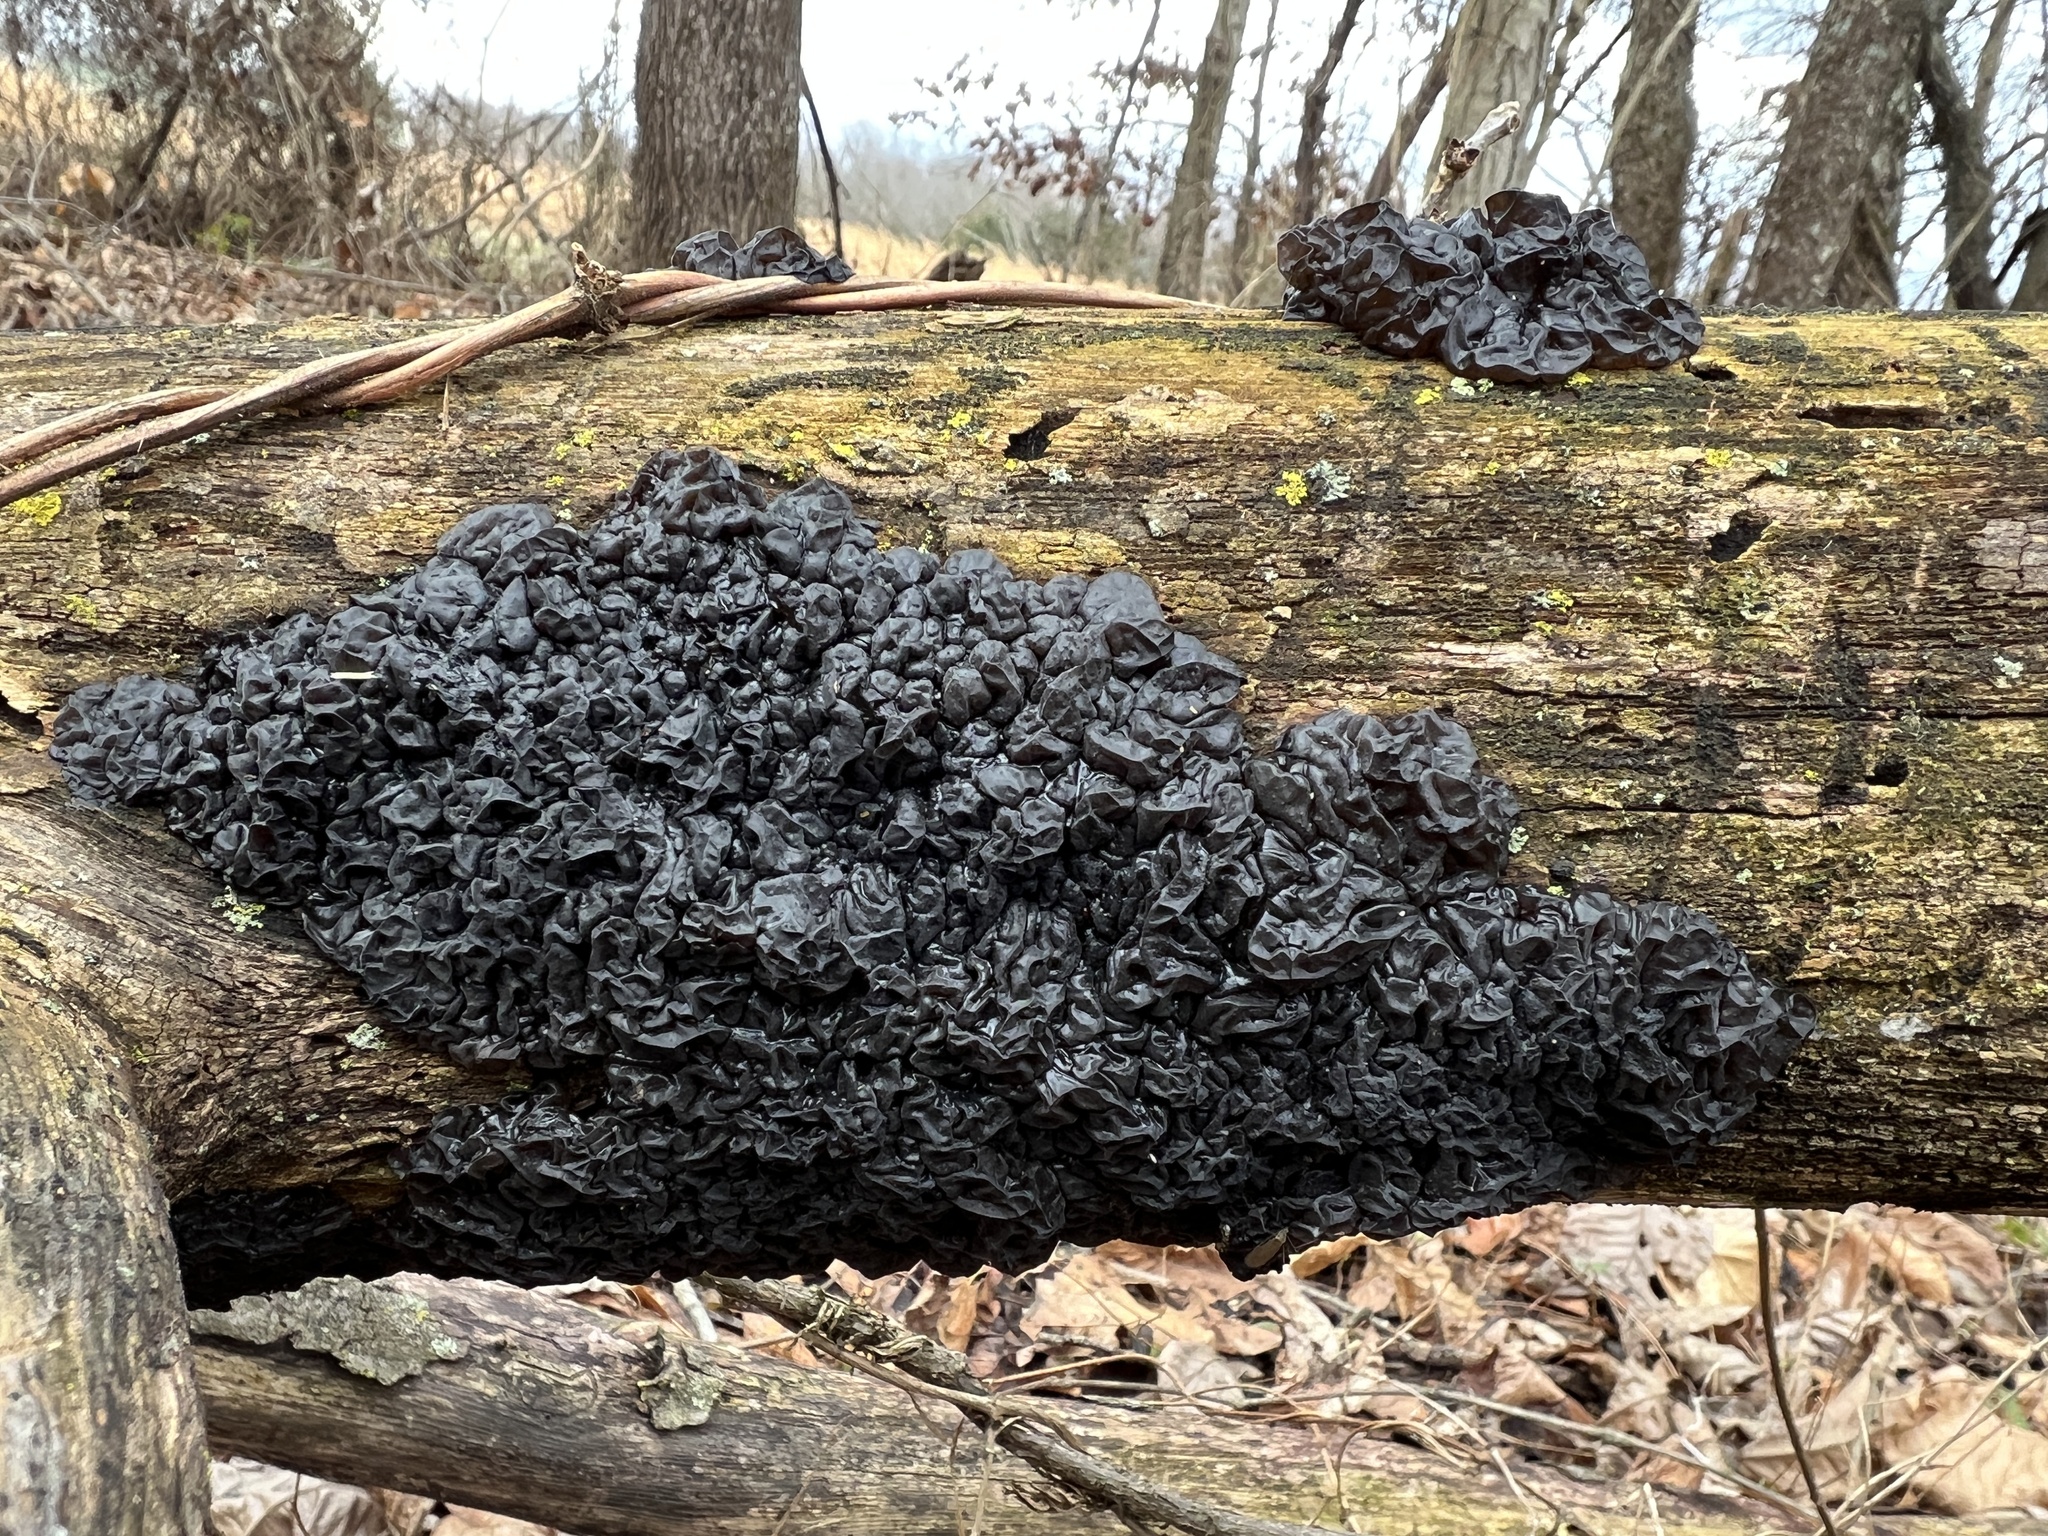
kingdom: Fungi
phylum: Basidiomycota
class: Agaricomycetes
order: Auriculariales
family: Auriculariaceae
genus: Exidia
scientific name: Exidia nigricans
